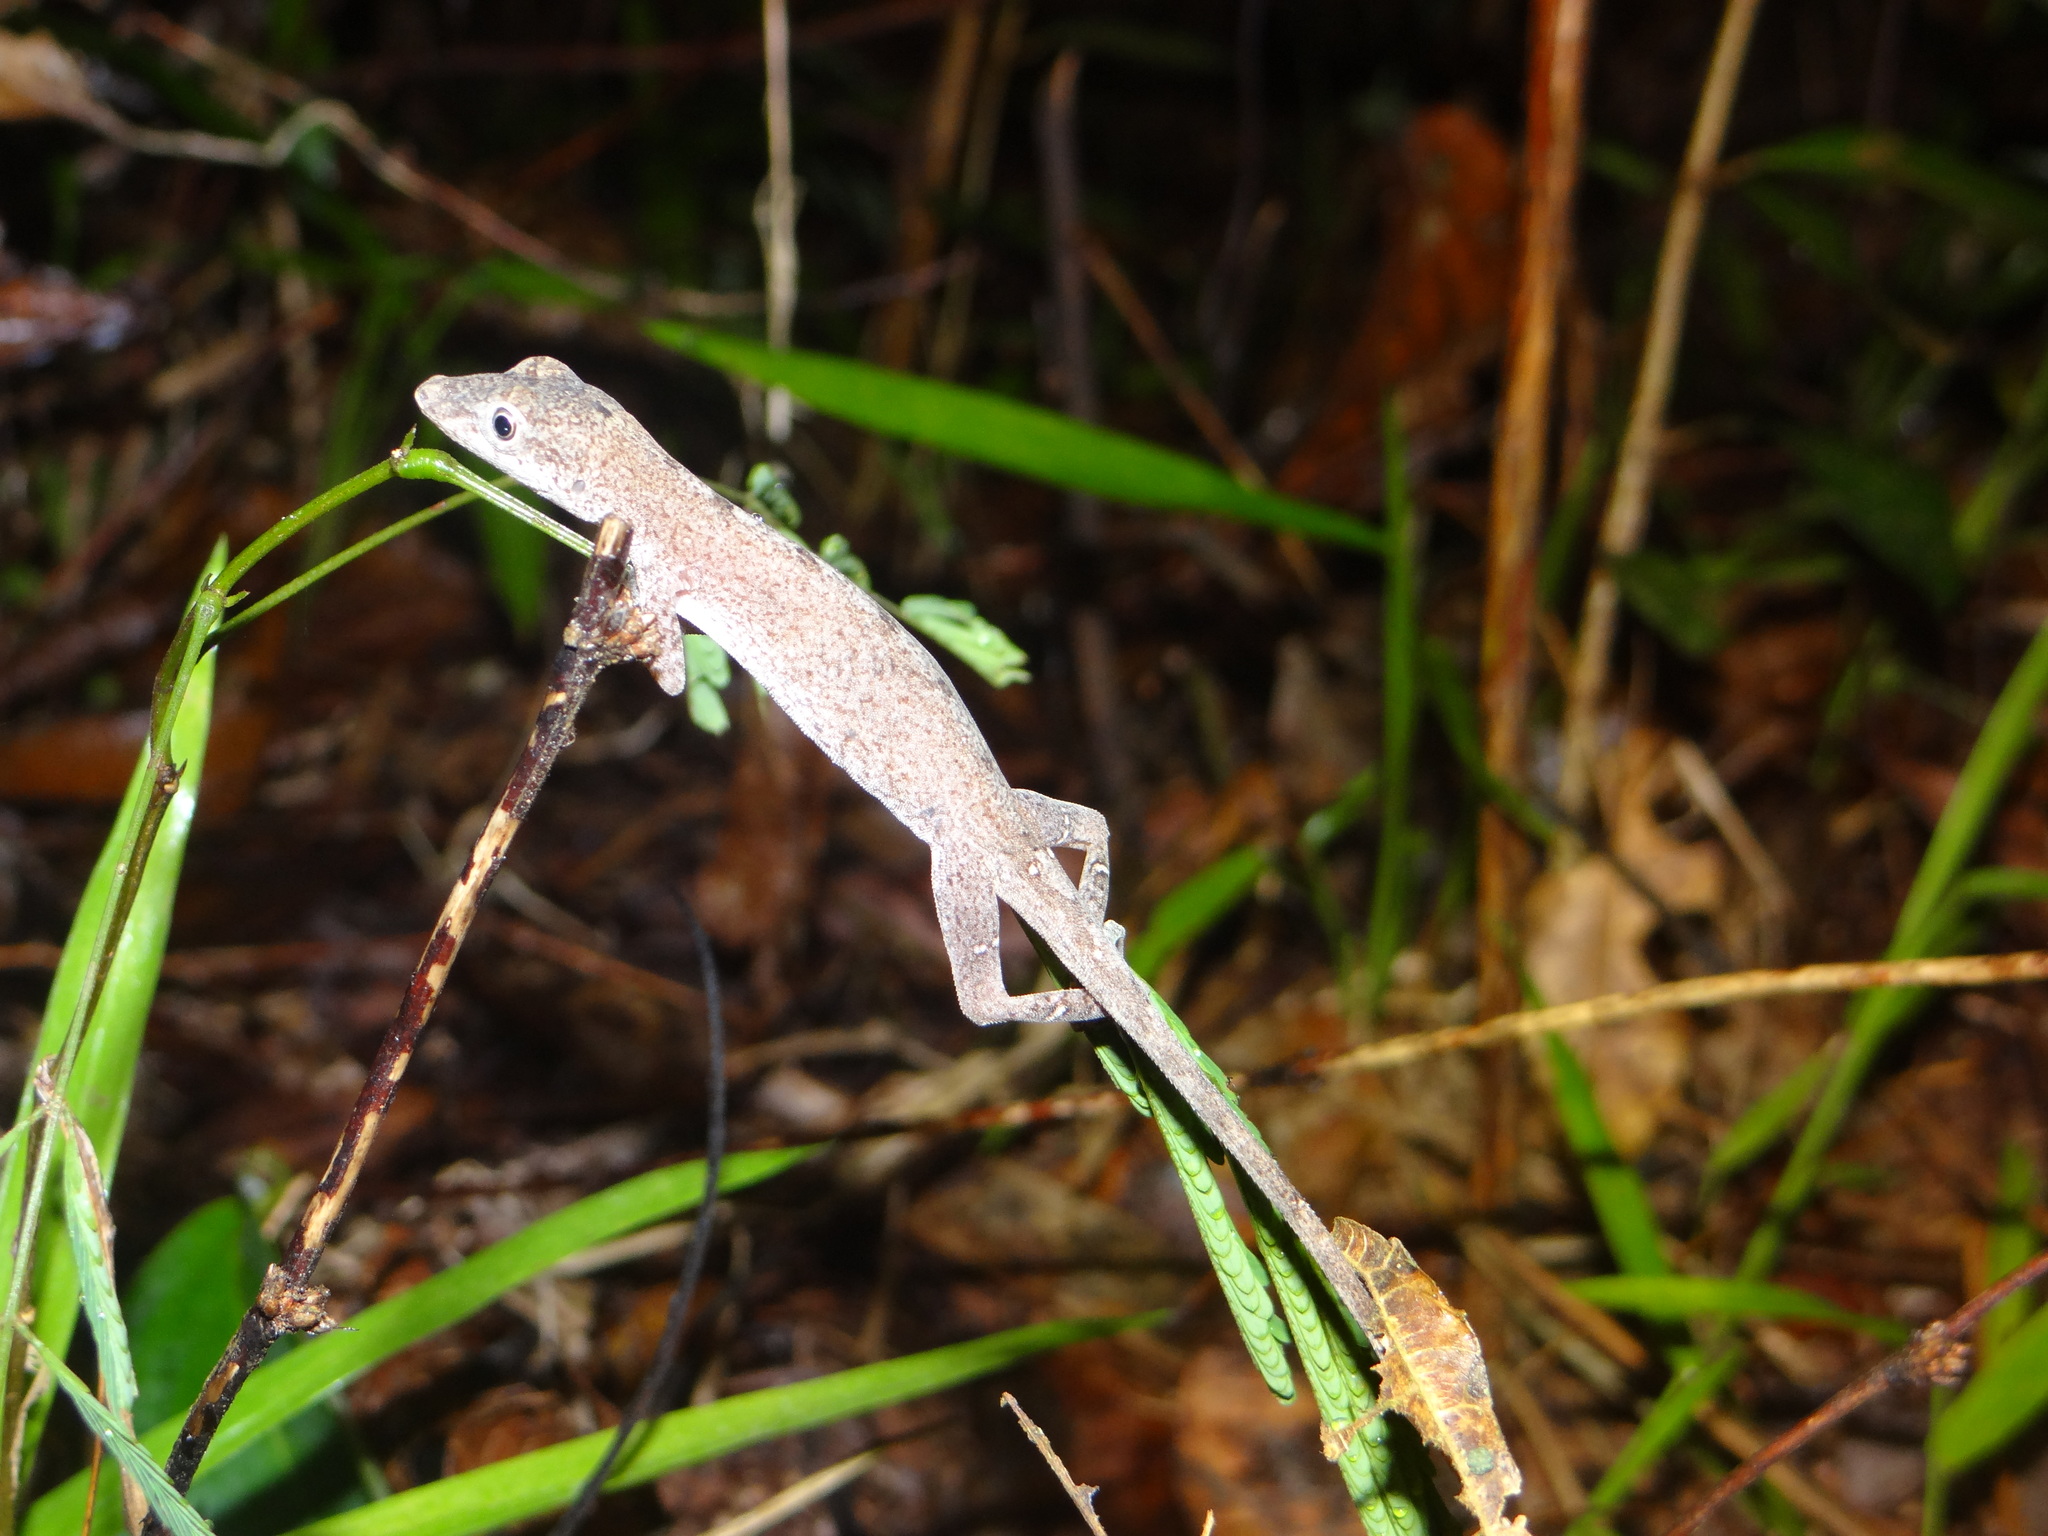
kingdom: Animalia
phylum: Chordata
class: Squamata
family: Dactyloidae
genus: Anolis
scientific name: Anolis fuscoauratus
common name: Brown-eared anole
